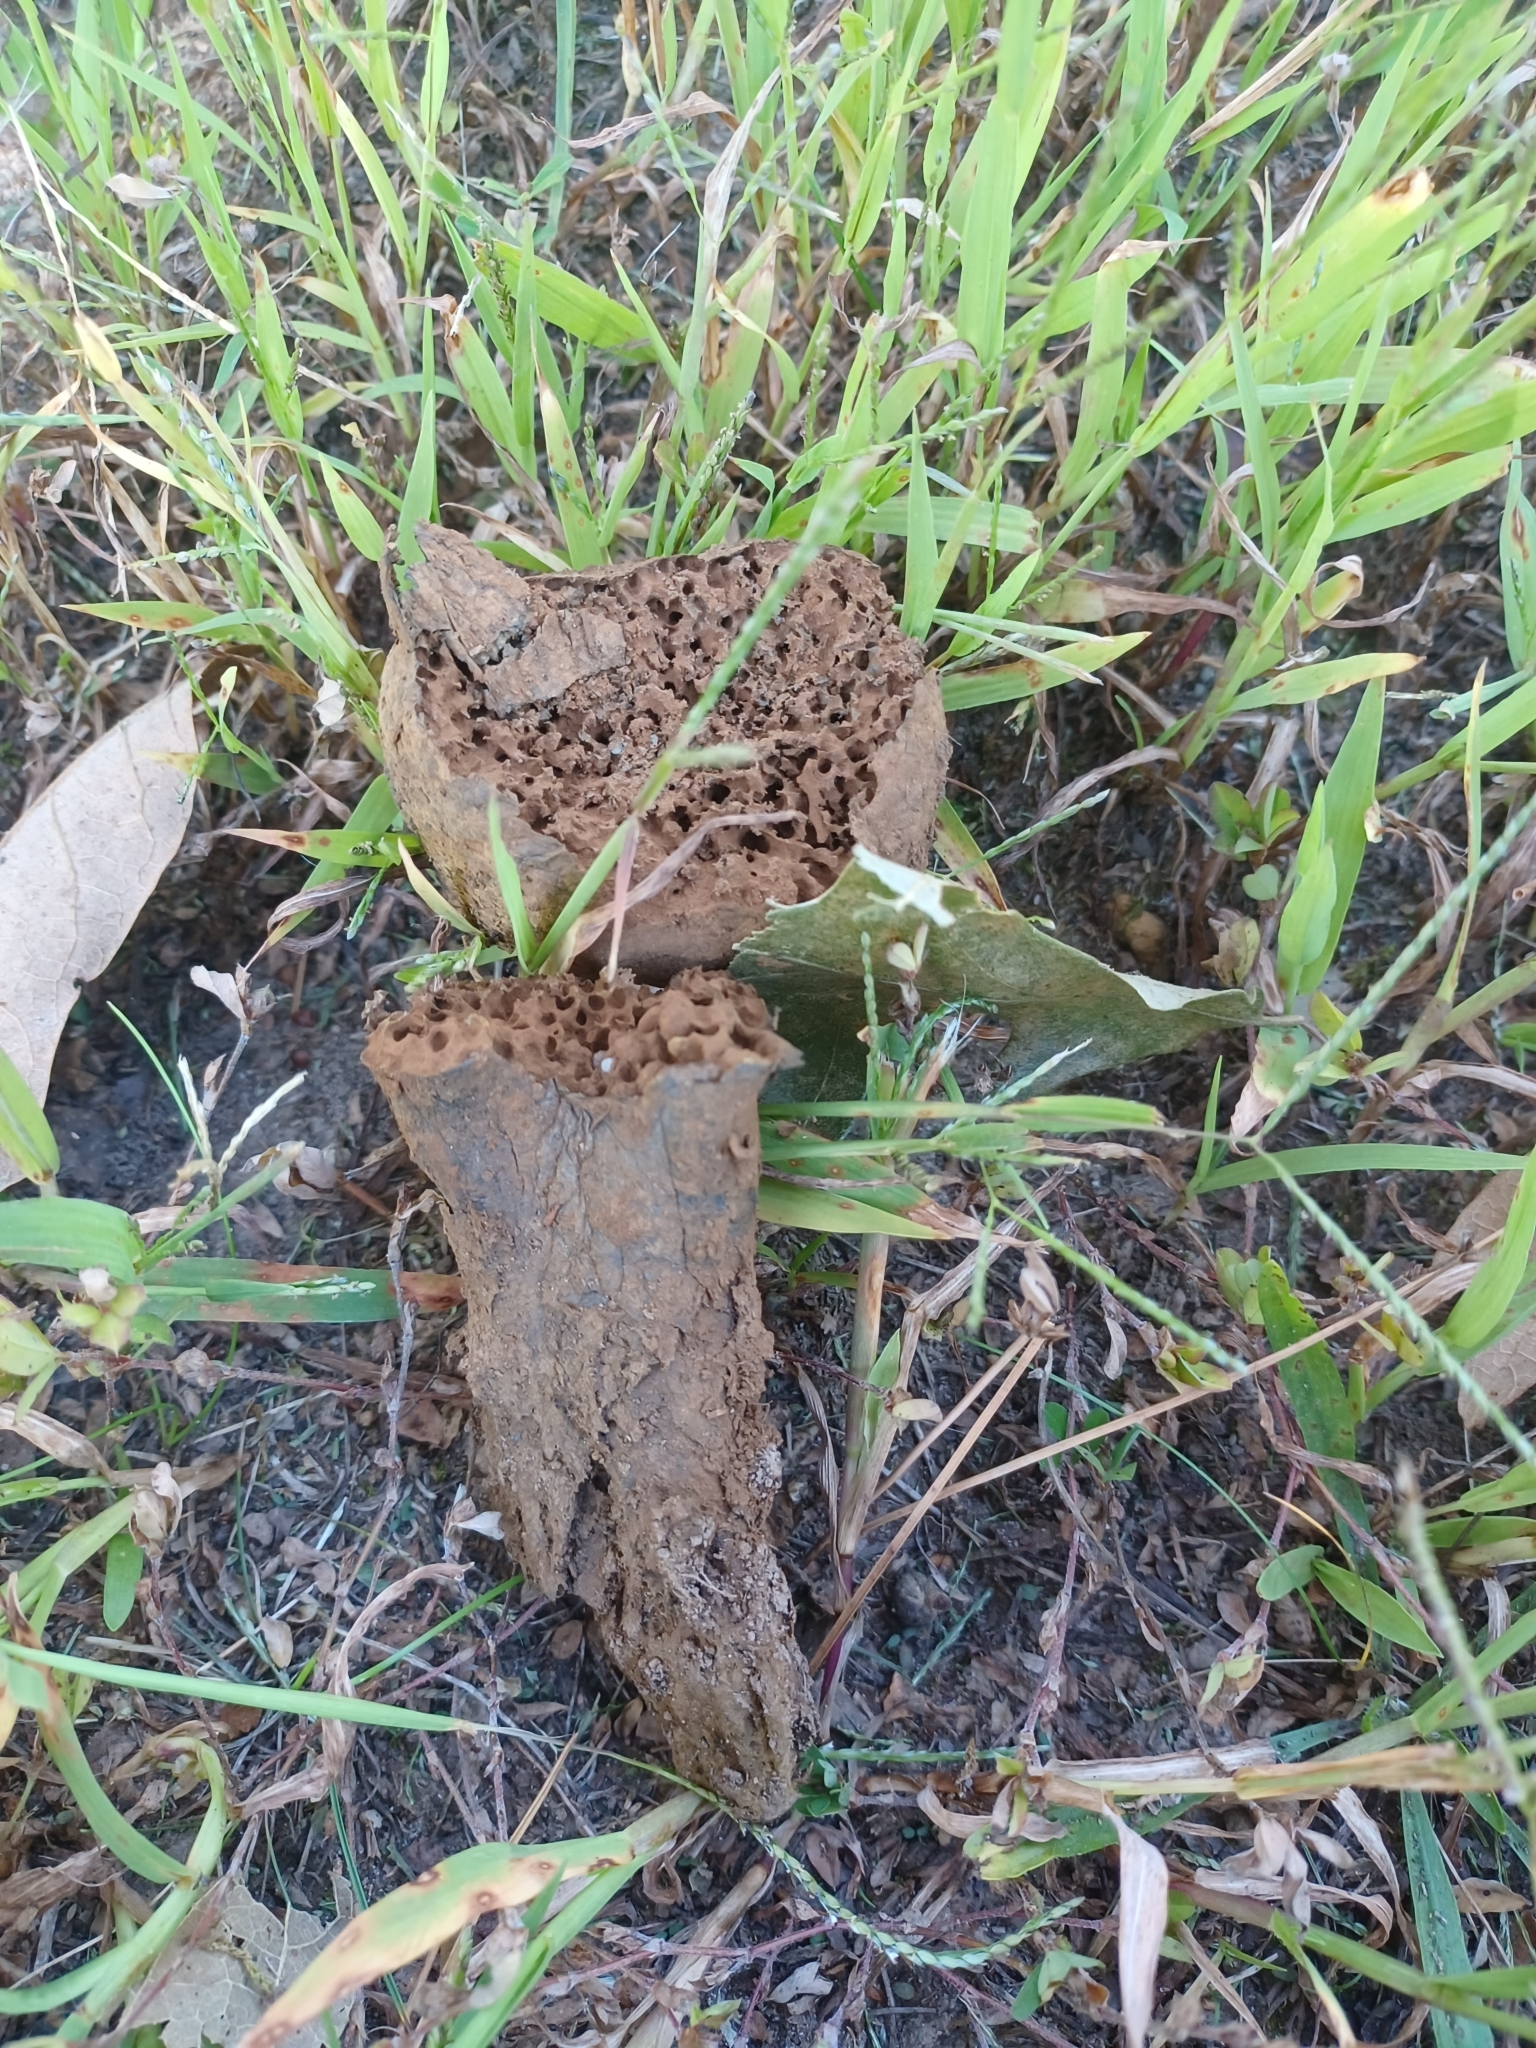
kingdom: Fungi
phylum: Basidiomycota
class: Agaricomycetes
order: Boletales
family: Sclerodermataceae
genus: Pisolithus
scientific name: Pisolithus arhizus
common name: Dyeball
